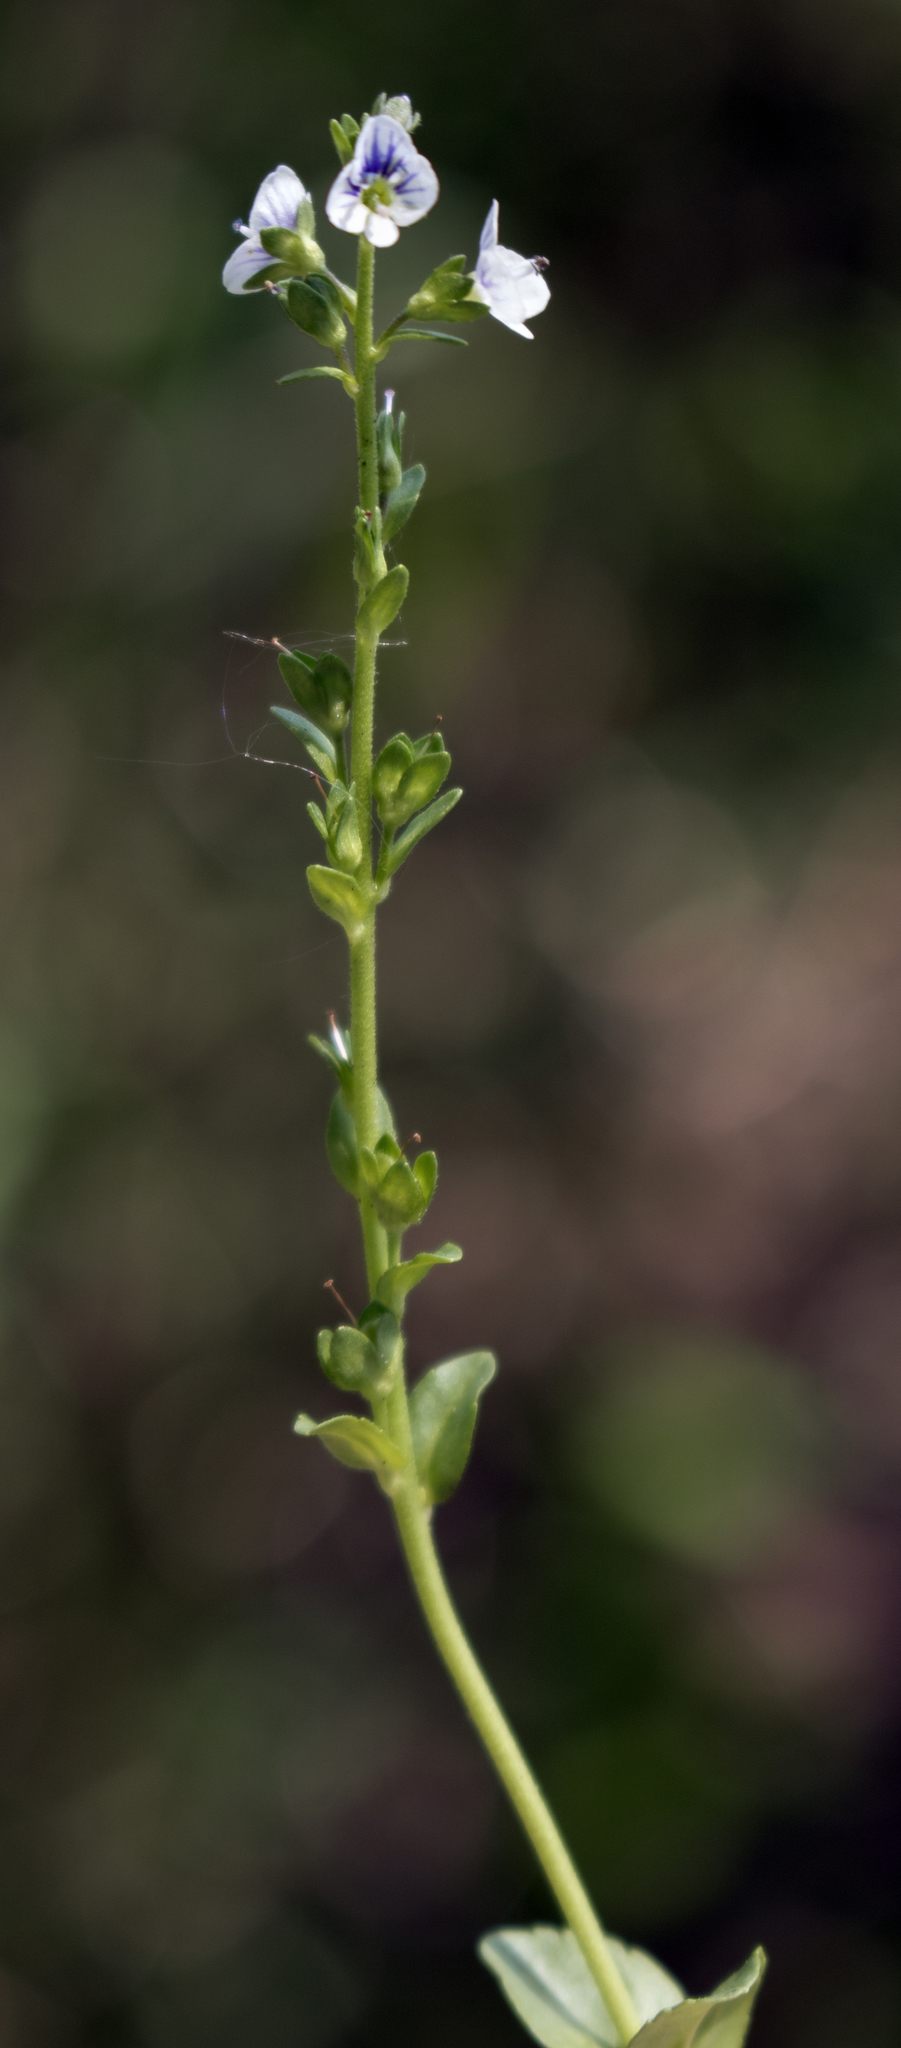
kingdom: Plantae
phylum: Tracheophyta
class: Magnoliopsida
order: Lamiales
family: Plantaginaceae
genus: Veronica
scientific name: Veronica serpyllifolia
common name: Thyme-leaved speedwell
